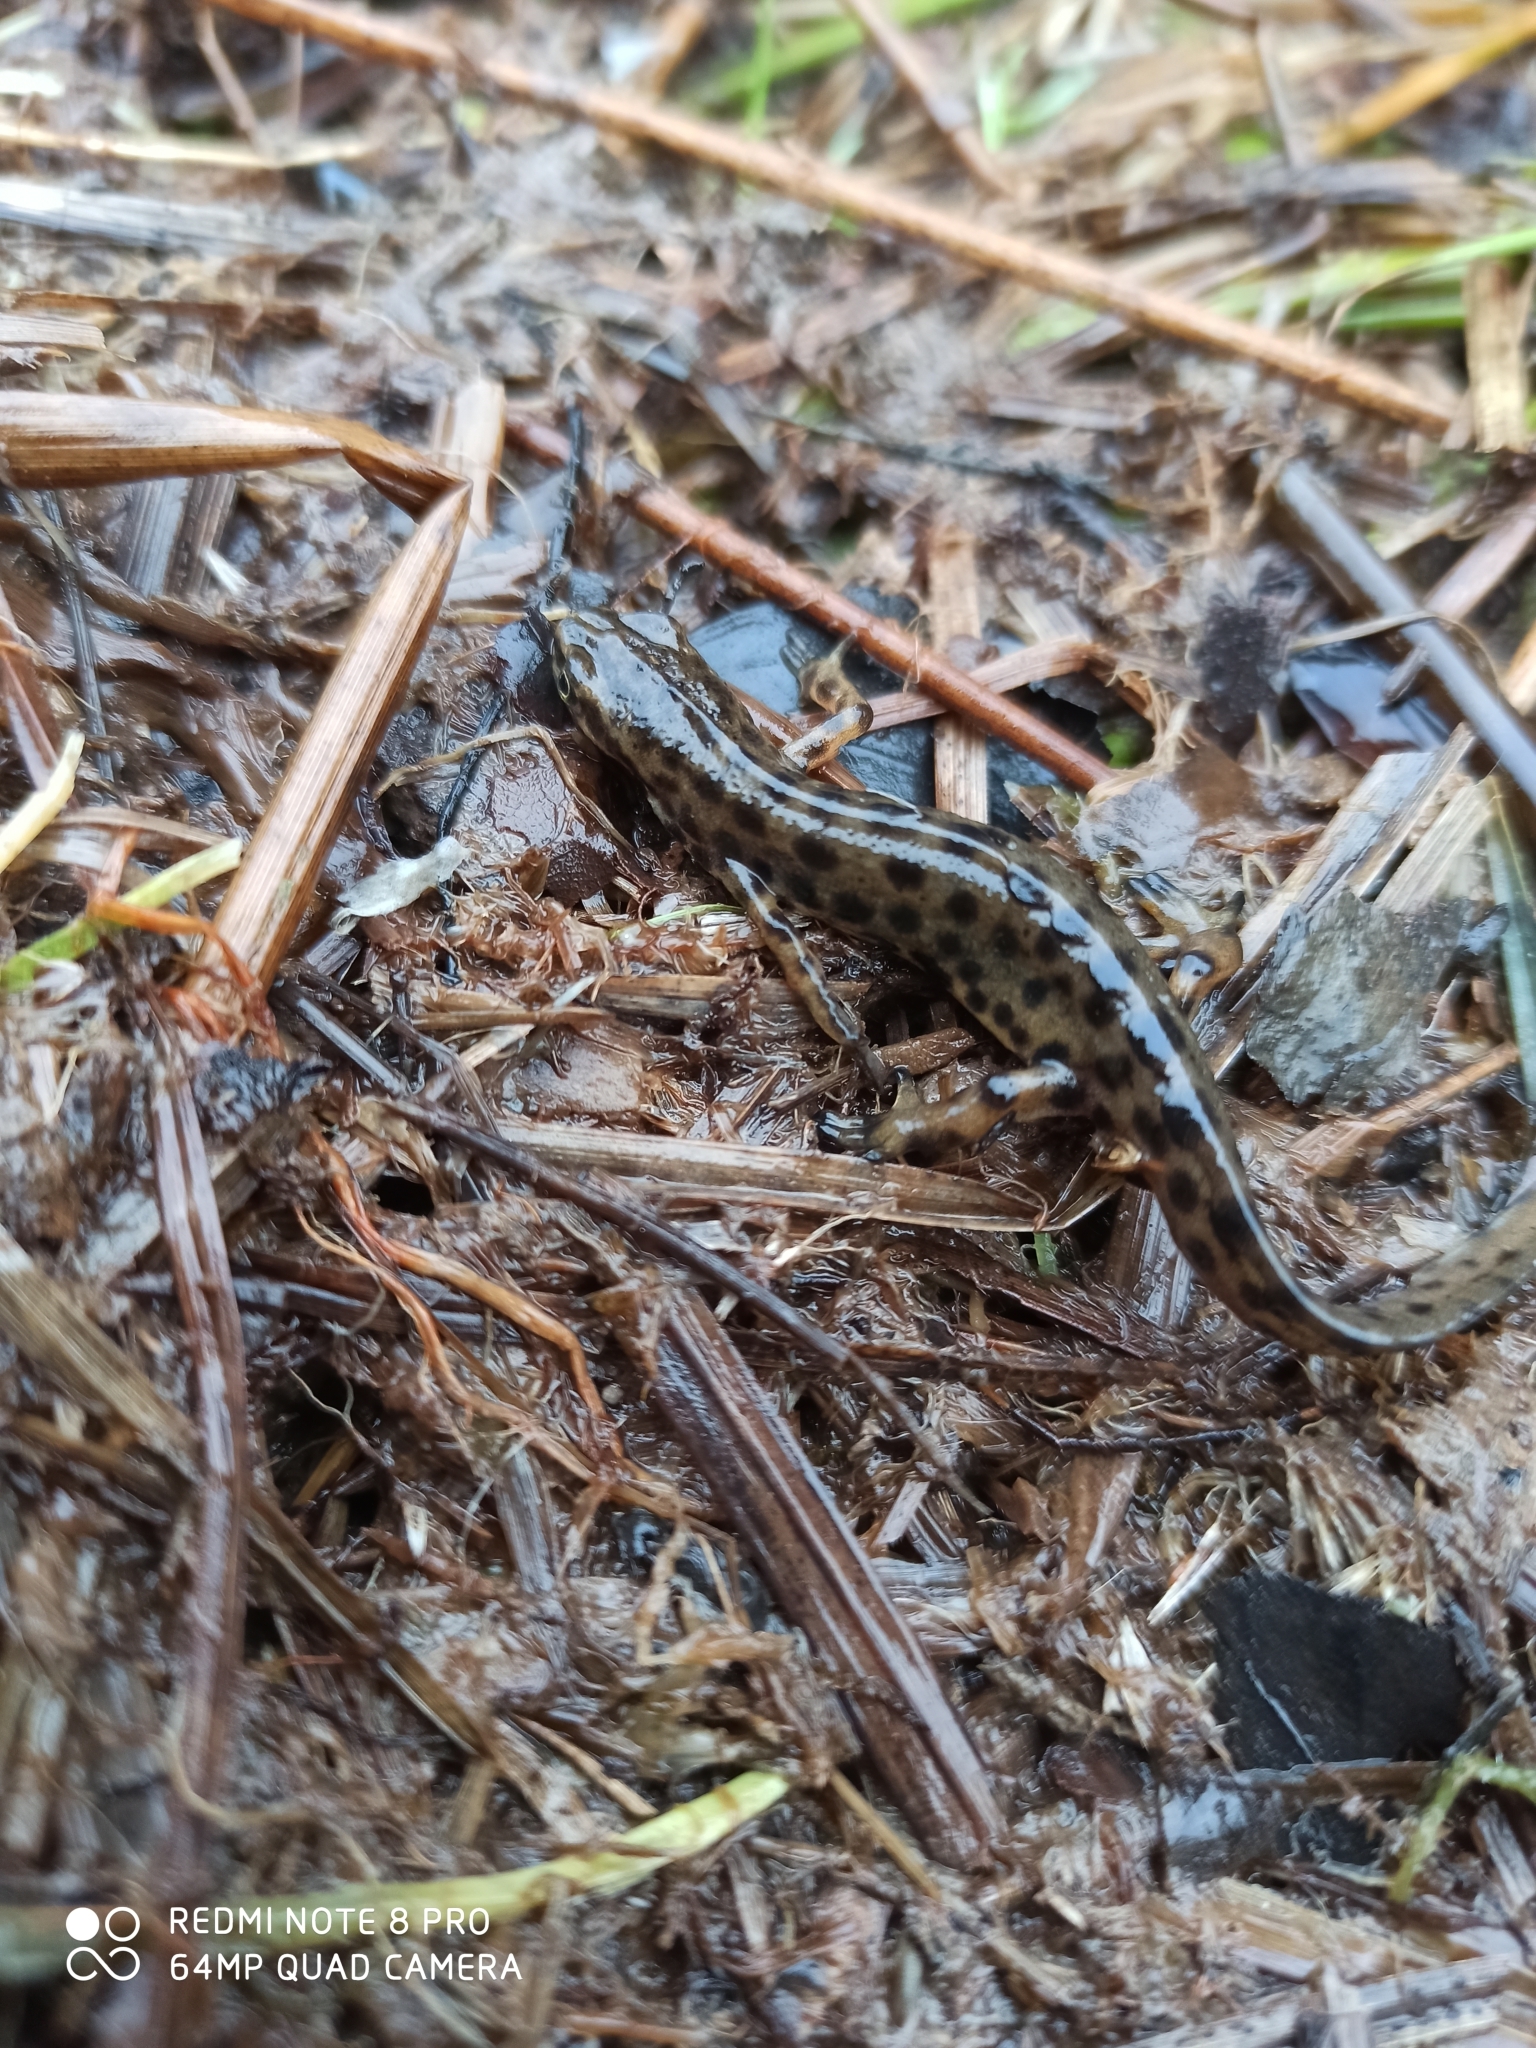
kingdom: Animalia
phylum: Chordata
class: Amphibia
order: Caudata
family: Salamandridae
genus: Lissotriton
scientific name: Lissotriton vulgaris
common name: Smooth newt
